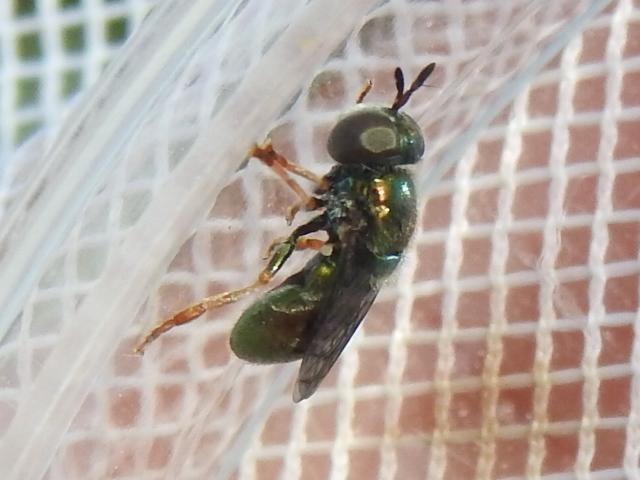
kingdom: Animalia
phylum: Arthropoda
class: Insecta
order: Diptera
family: Syrphidae
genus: Laetodon
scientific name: Laetodon laetus
